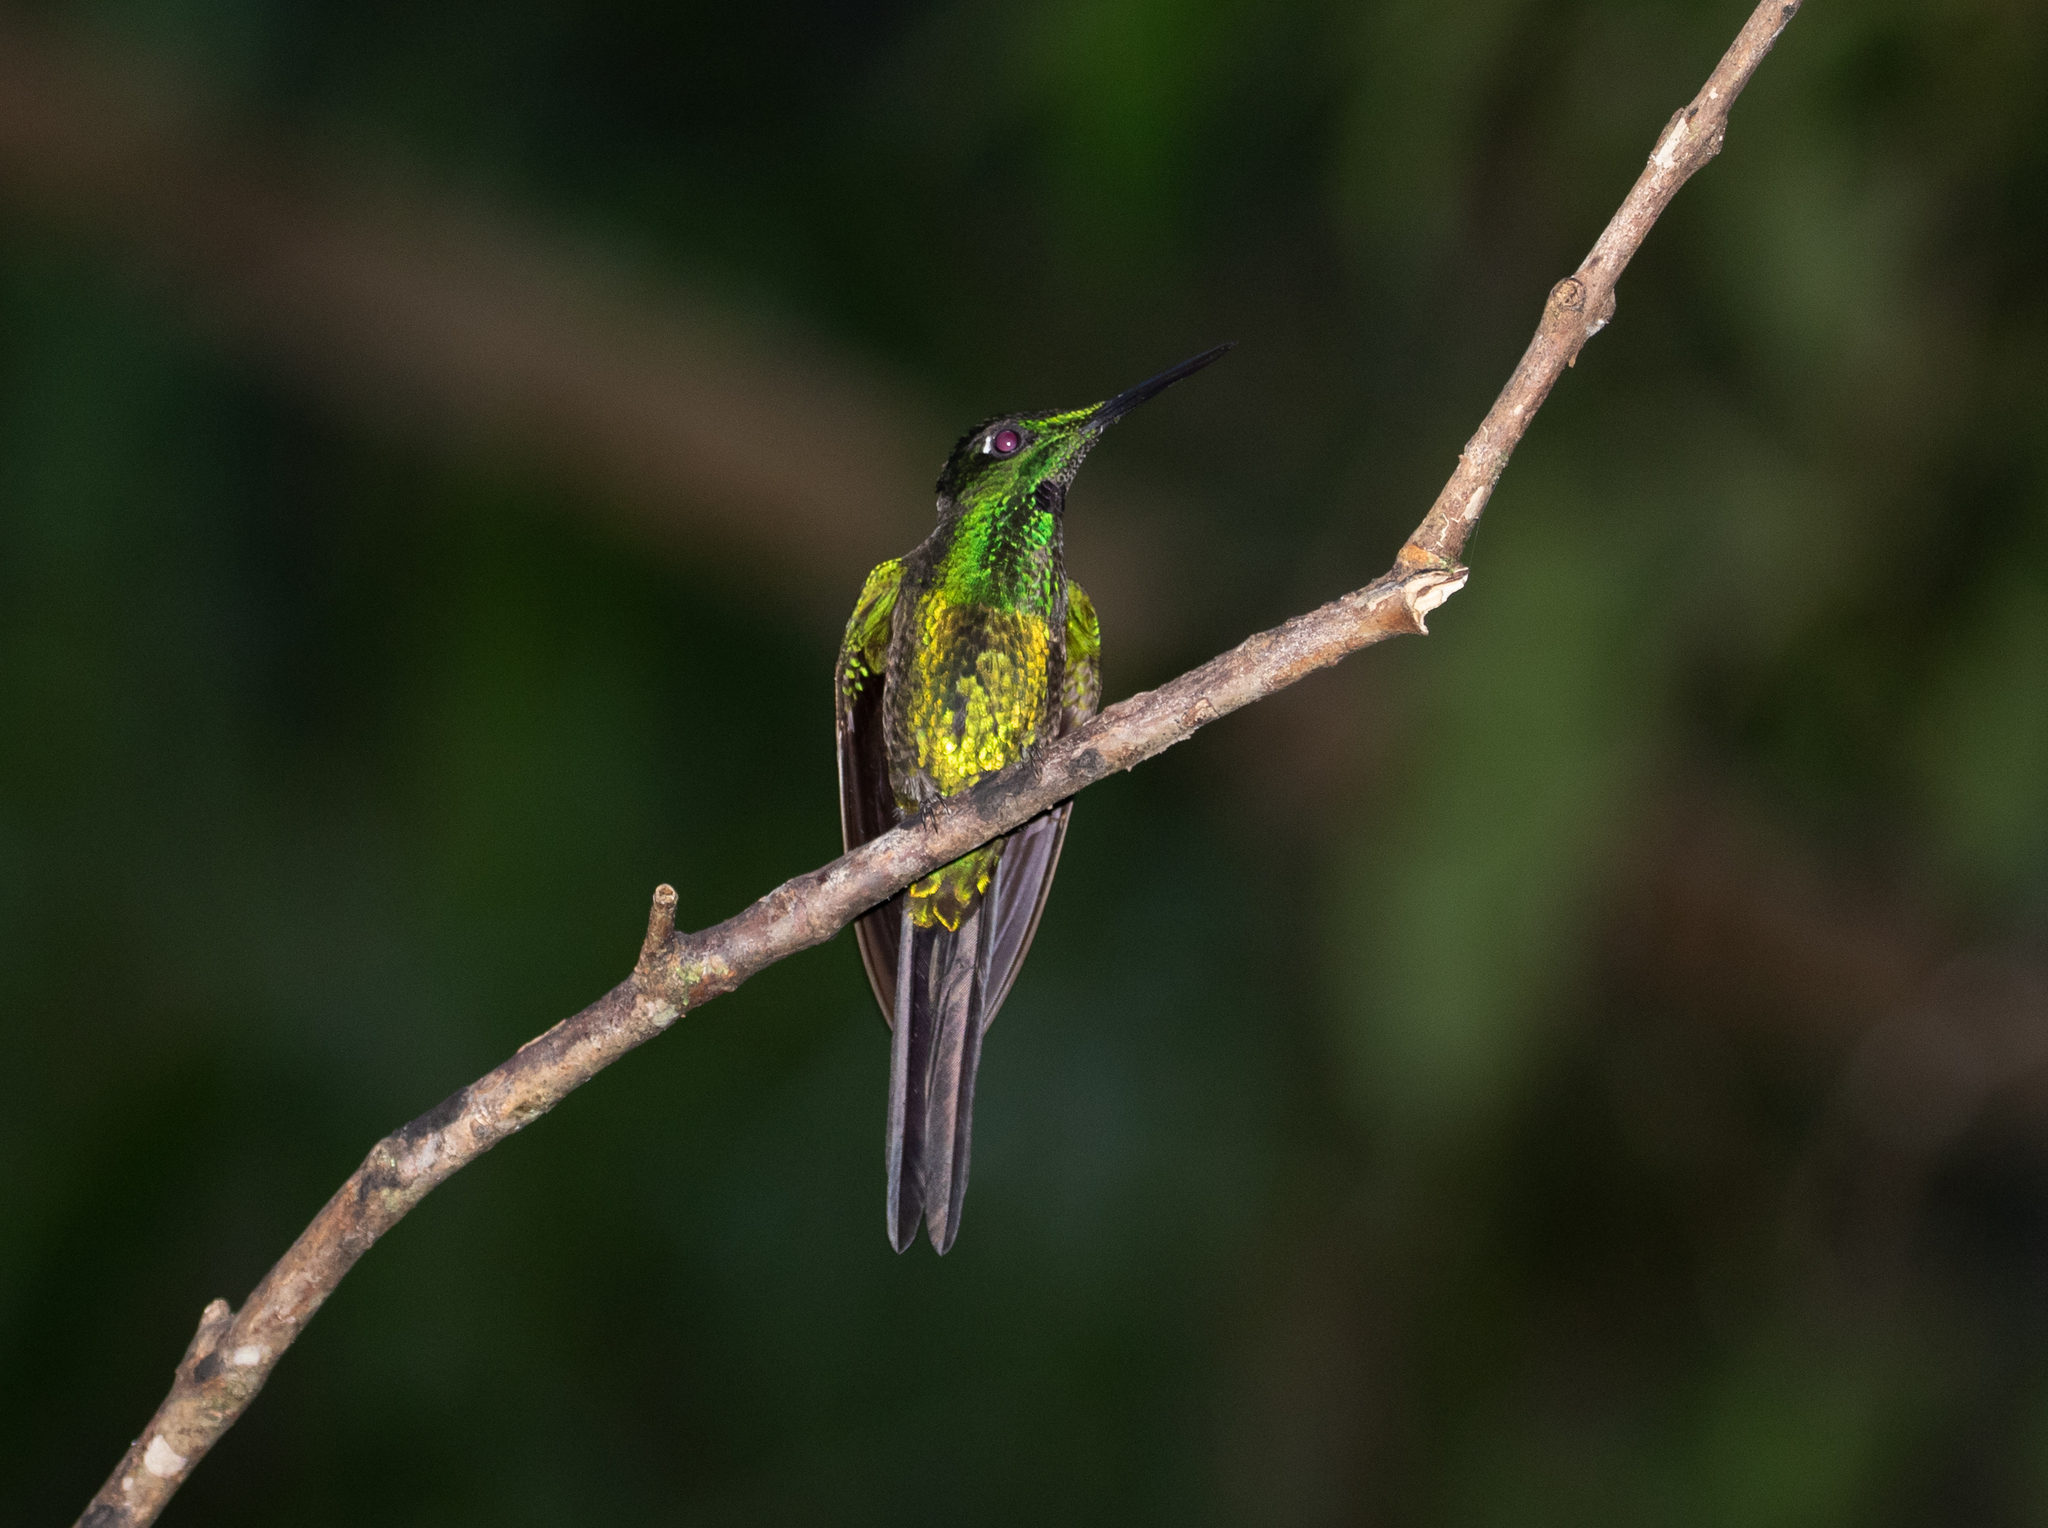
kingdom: Animalia
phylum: Chordata
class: Aves
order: Apodiformes
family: Trochilidae
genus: Heliodoxa
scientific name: Heliodoxa imperatrix
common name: Empress brilliant
